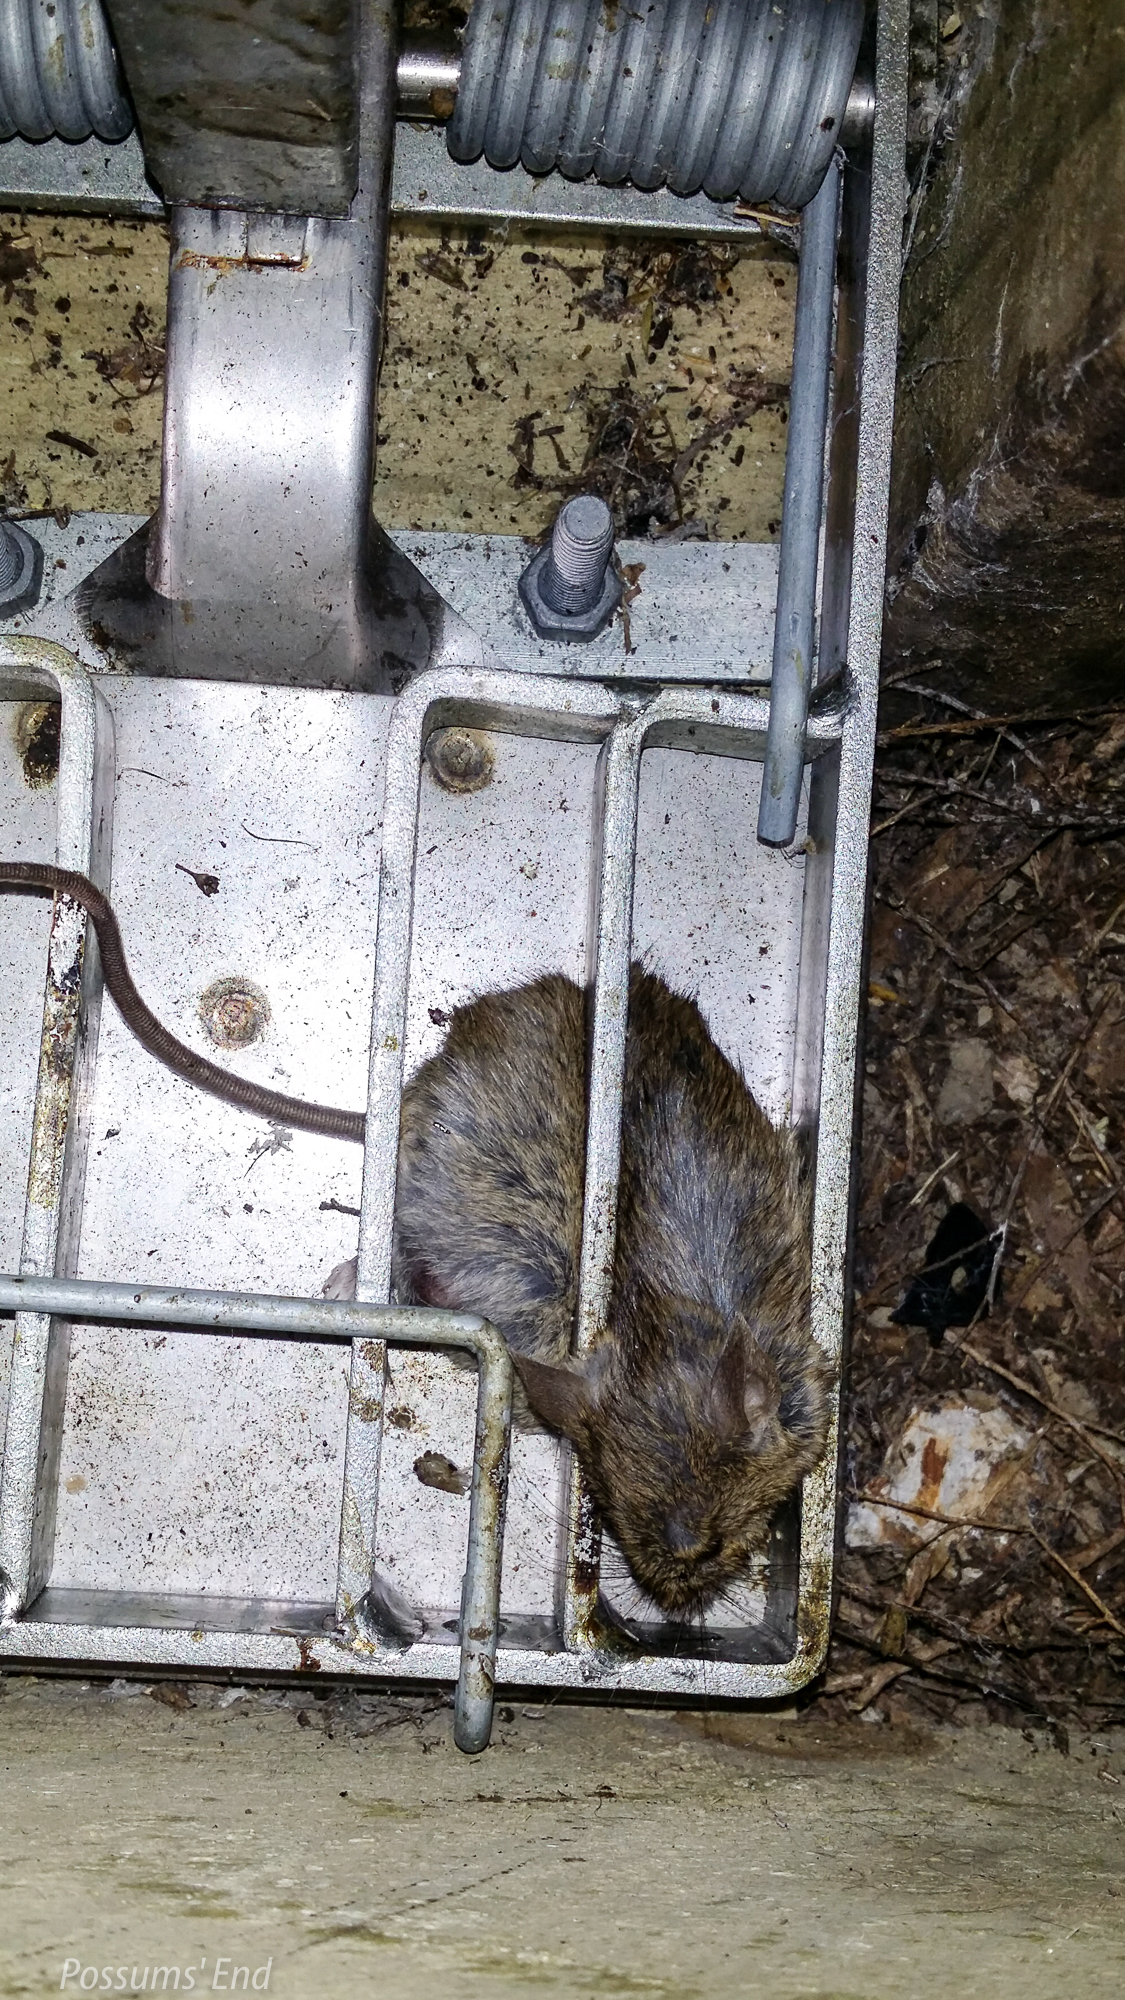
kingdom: Animalia
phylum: Chordata
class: Mammalia
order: Rodentia
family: Muridae
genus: Mus
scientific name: Mus musculus
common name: House mouse
